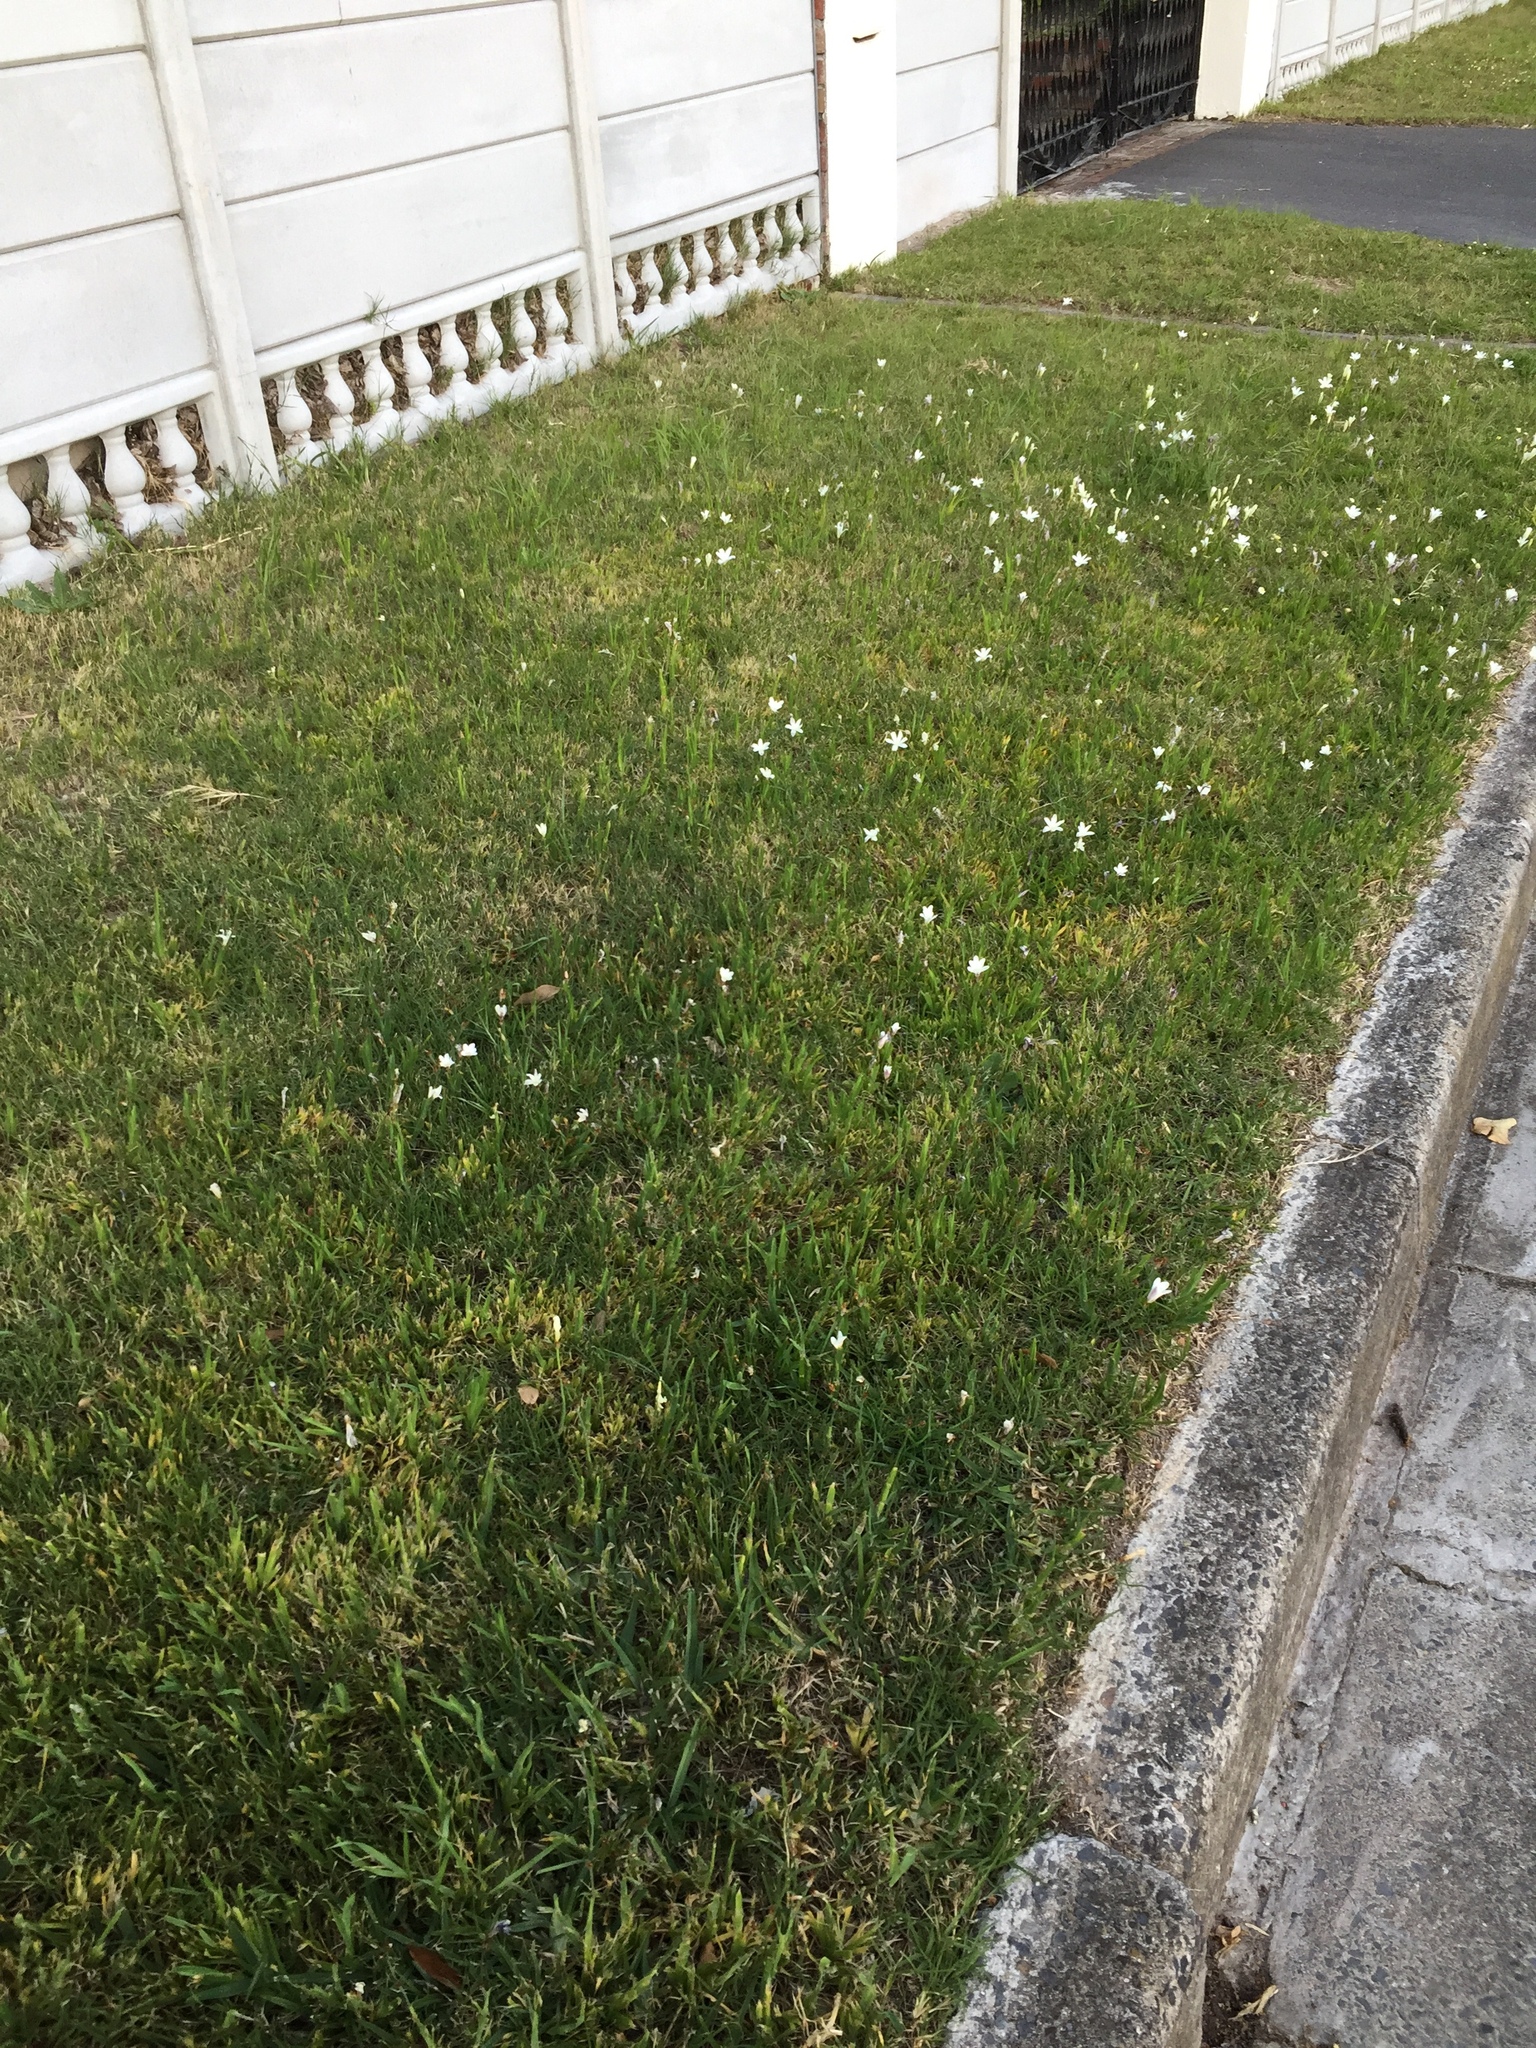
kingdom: Plantae
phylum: Tracheophyta
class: Liliopsida
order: Asparagales
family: Iridaceae
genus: Sparaxis
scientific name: Sparaxis bulbifera
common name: Harlequin-flower
